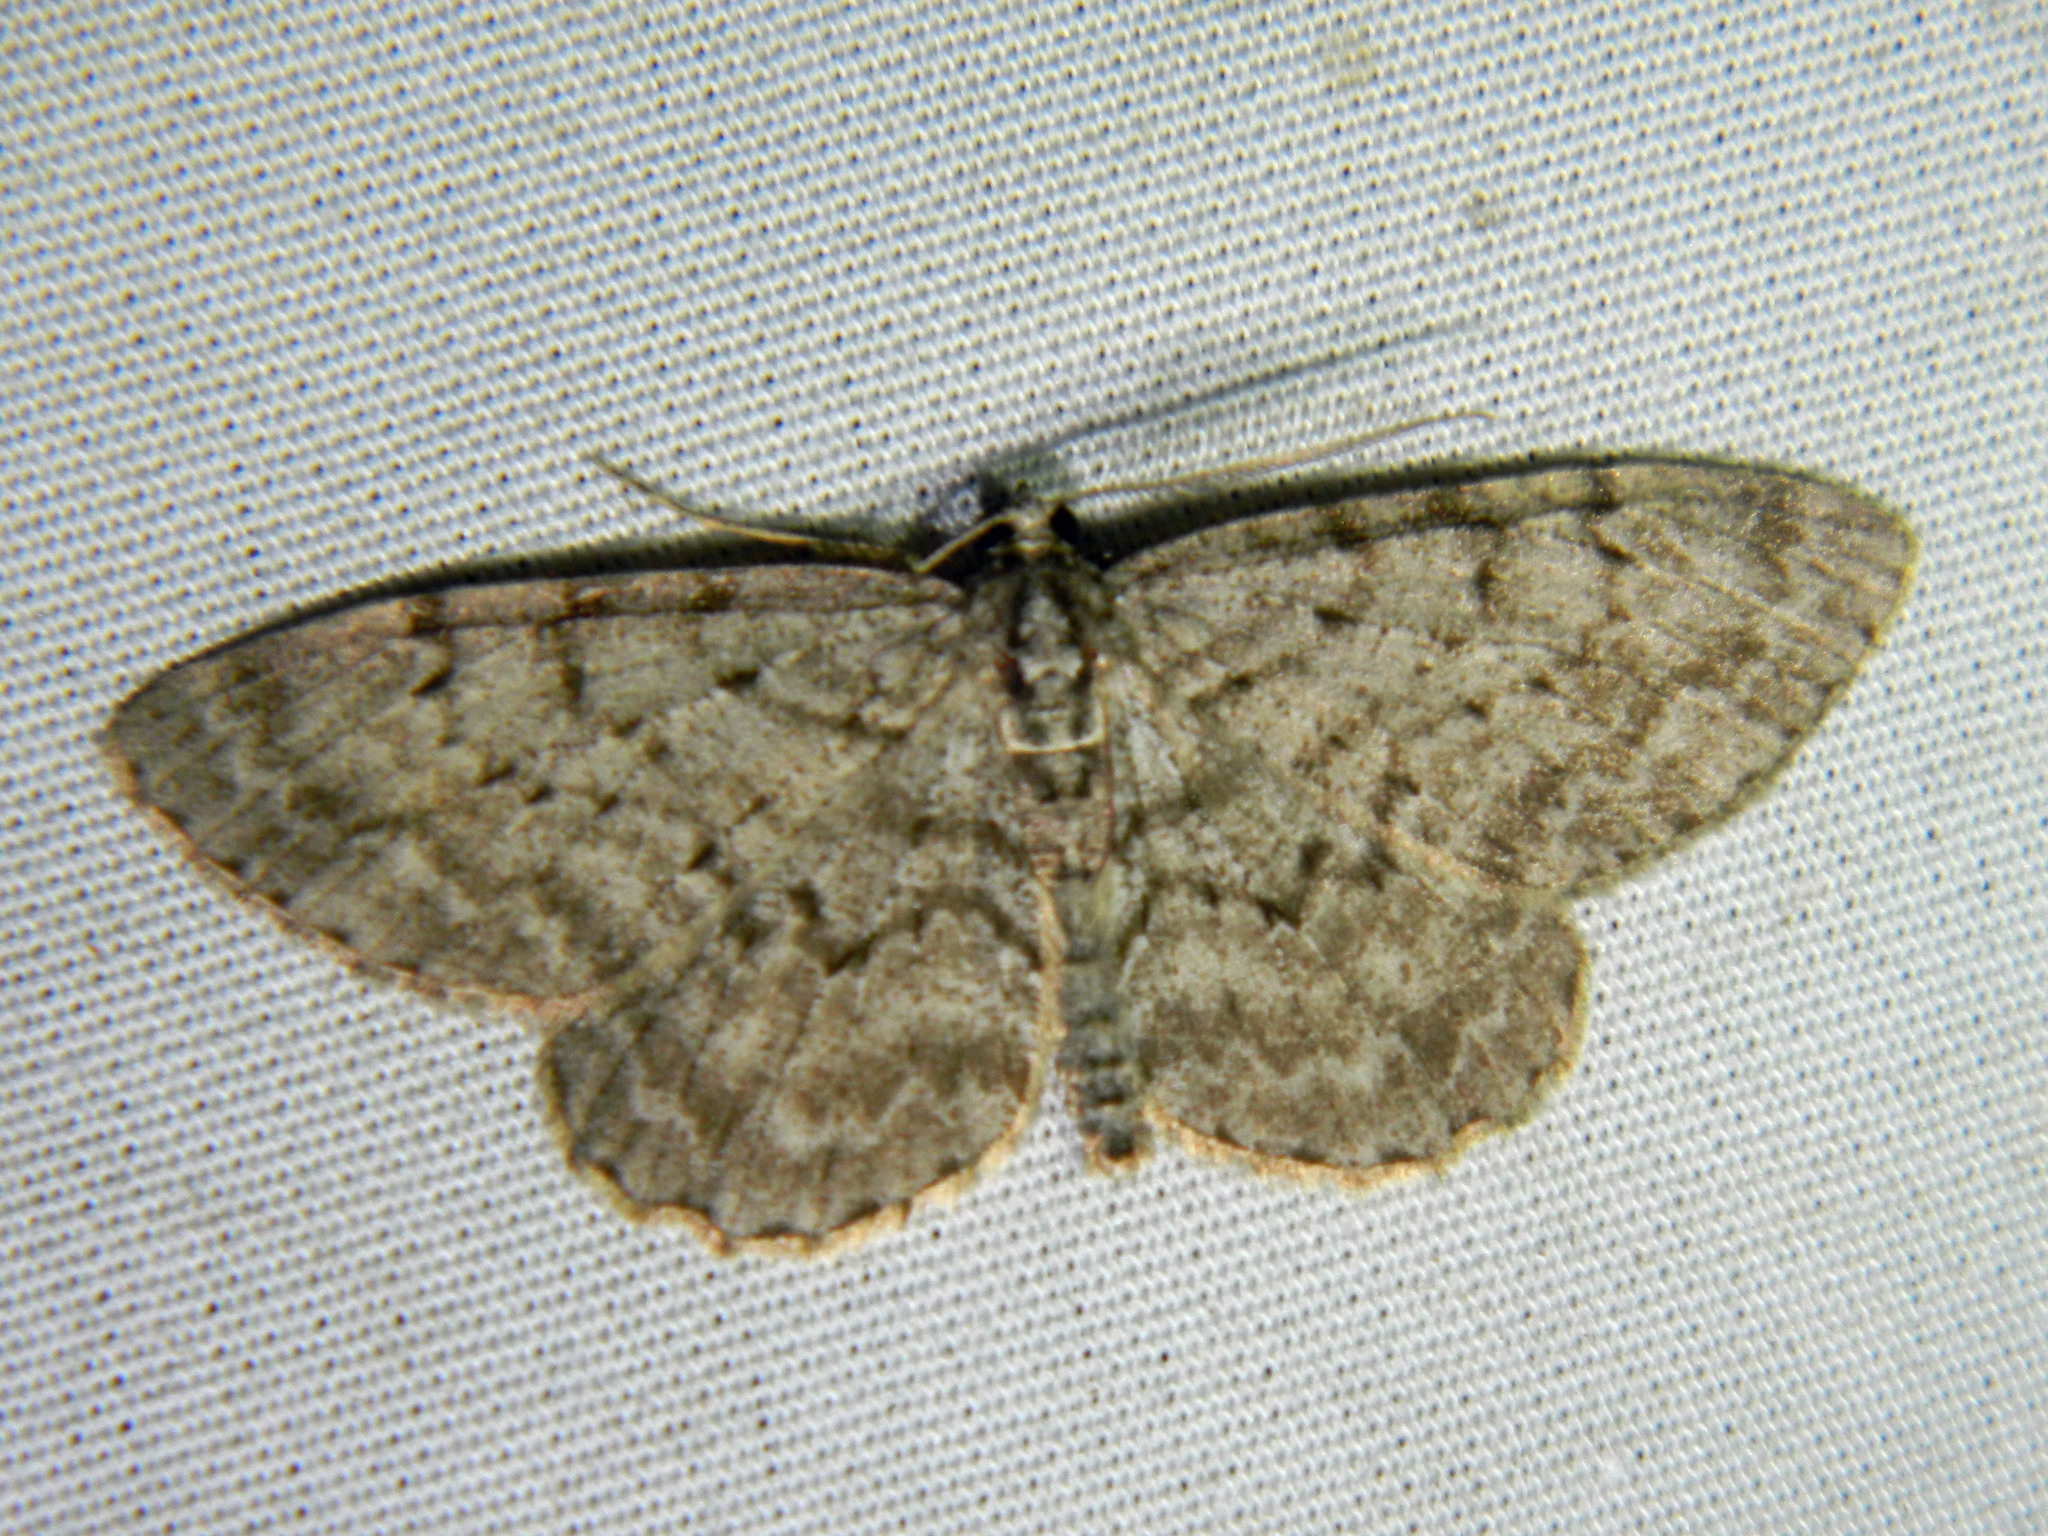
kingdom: Animalia
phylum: Arthropoda
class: Insecta
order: Lepidoptera
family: Geometridae
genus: Protoboarmia
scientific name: Protoboarmia porcelaria
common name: Porcelain gray
